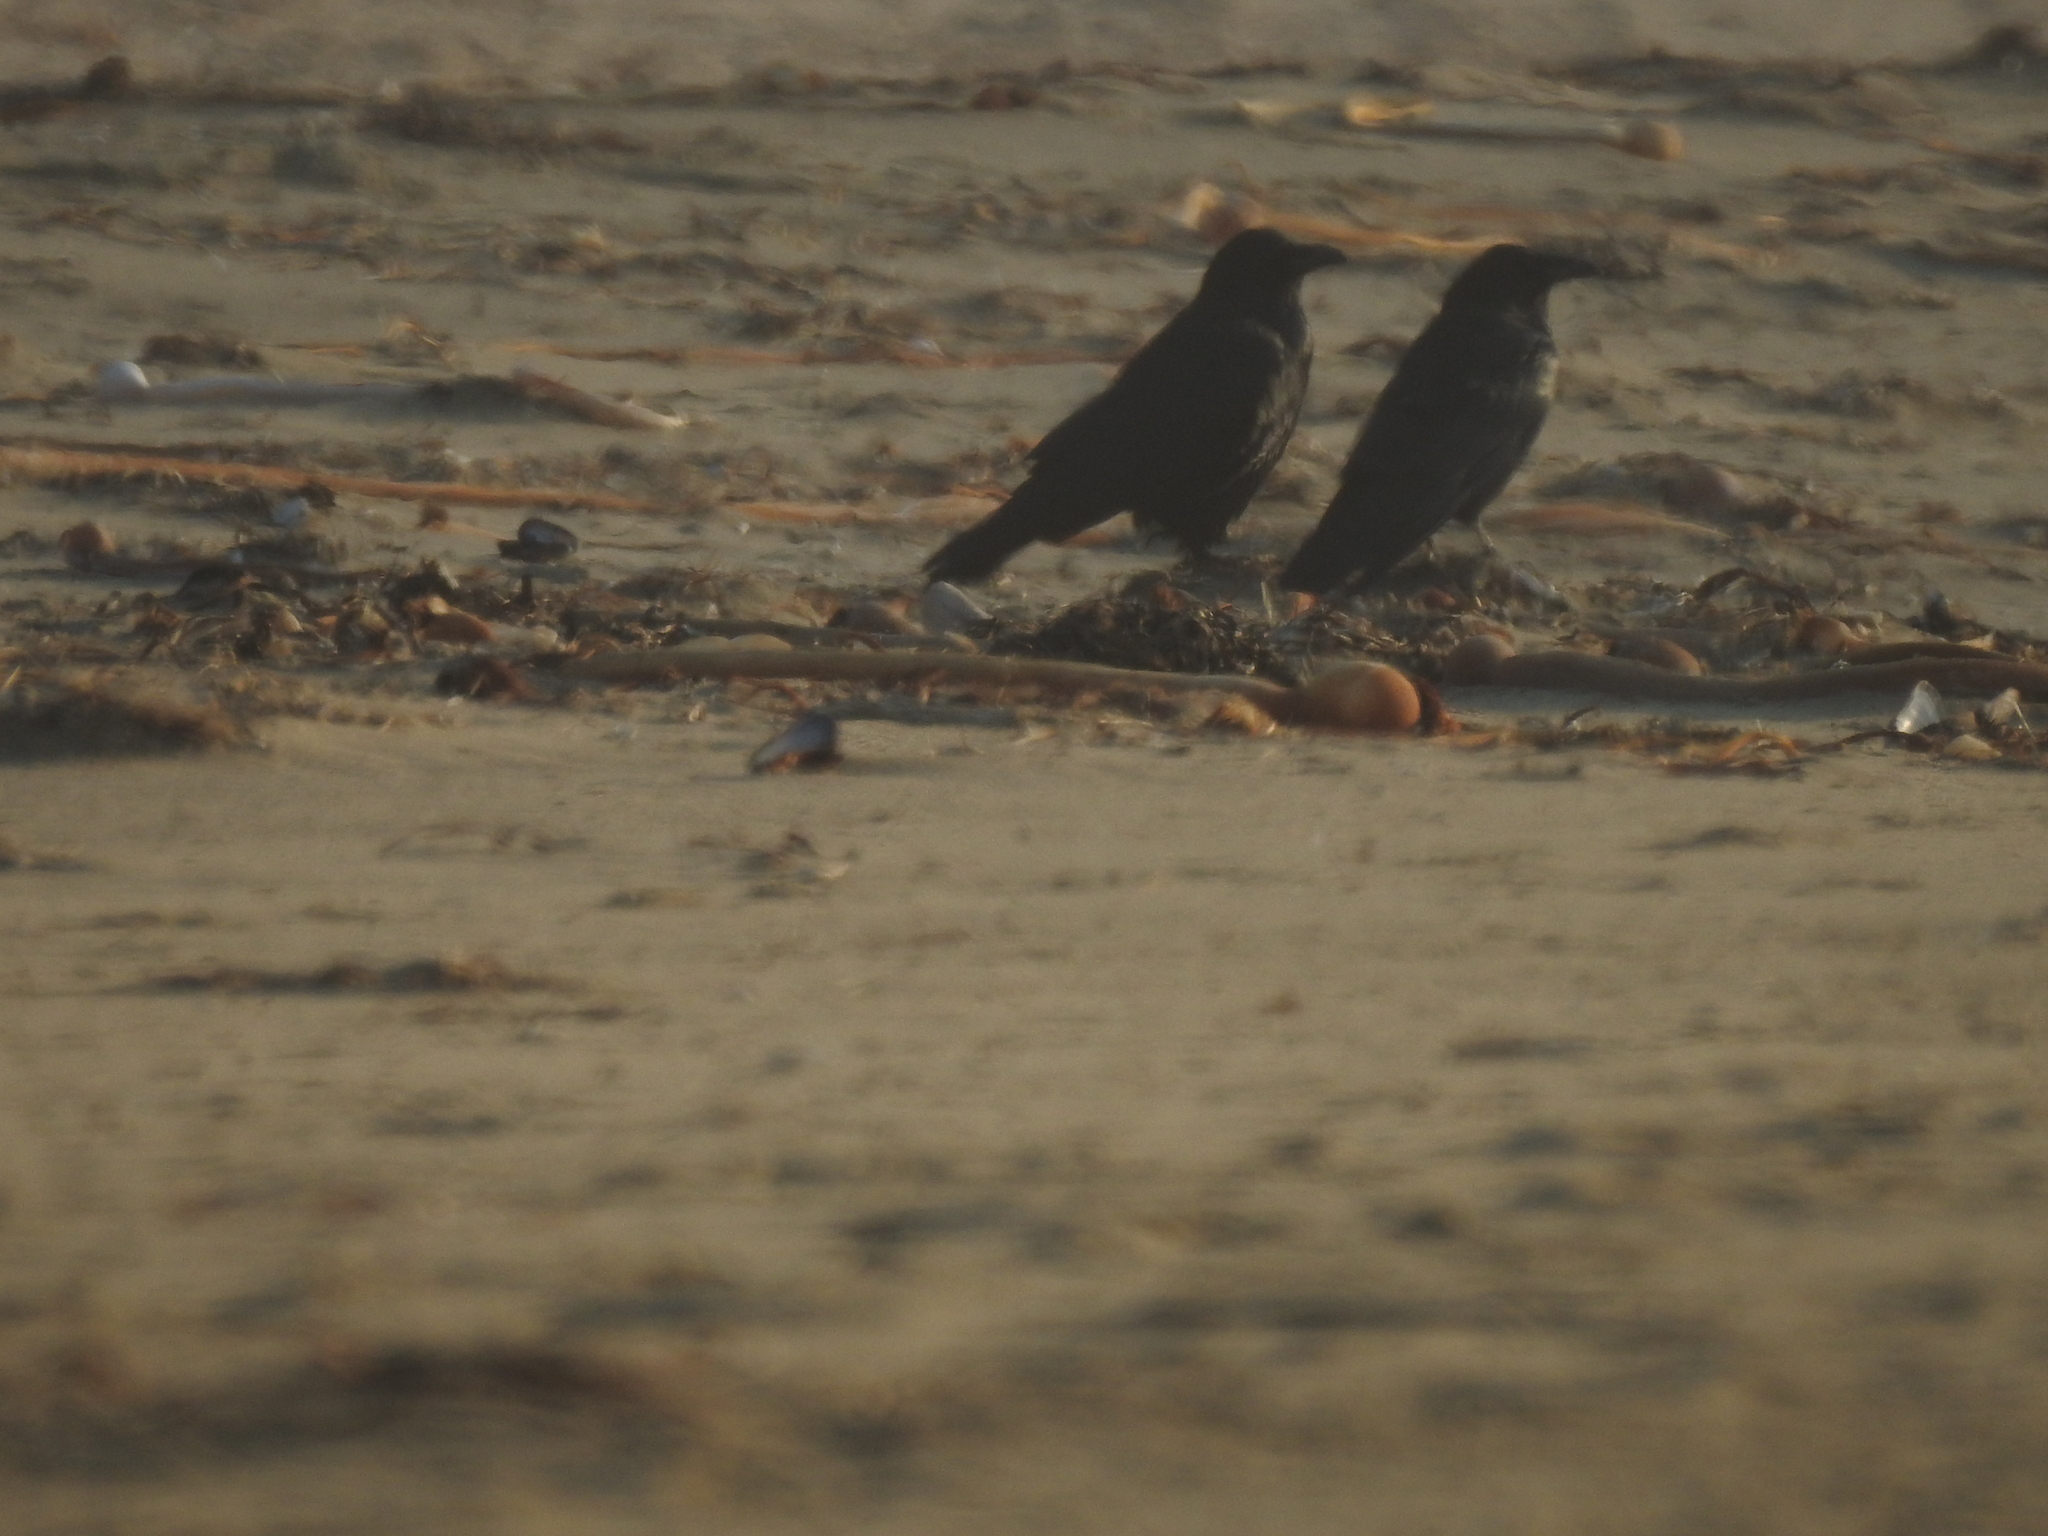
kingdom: Animalia
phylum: Chordata
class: Aves
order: Passeriformes
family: Corvidae
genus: Corvus
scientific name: Corvus corax
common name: Common raven
